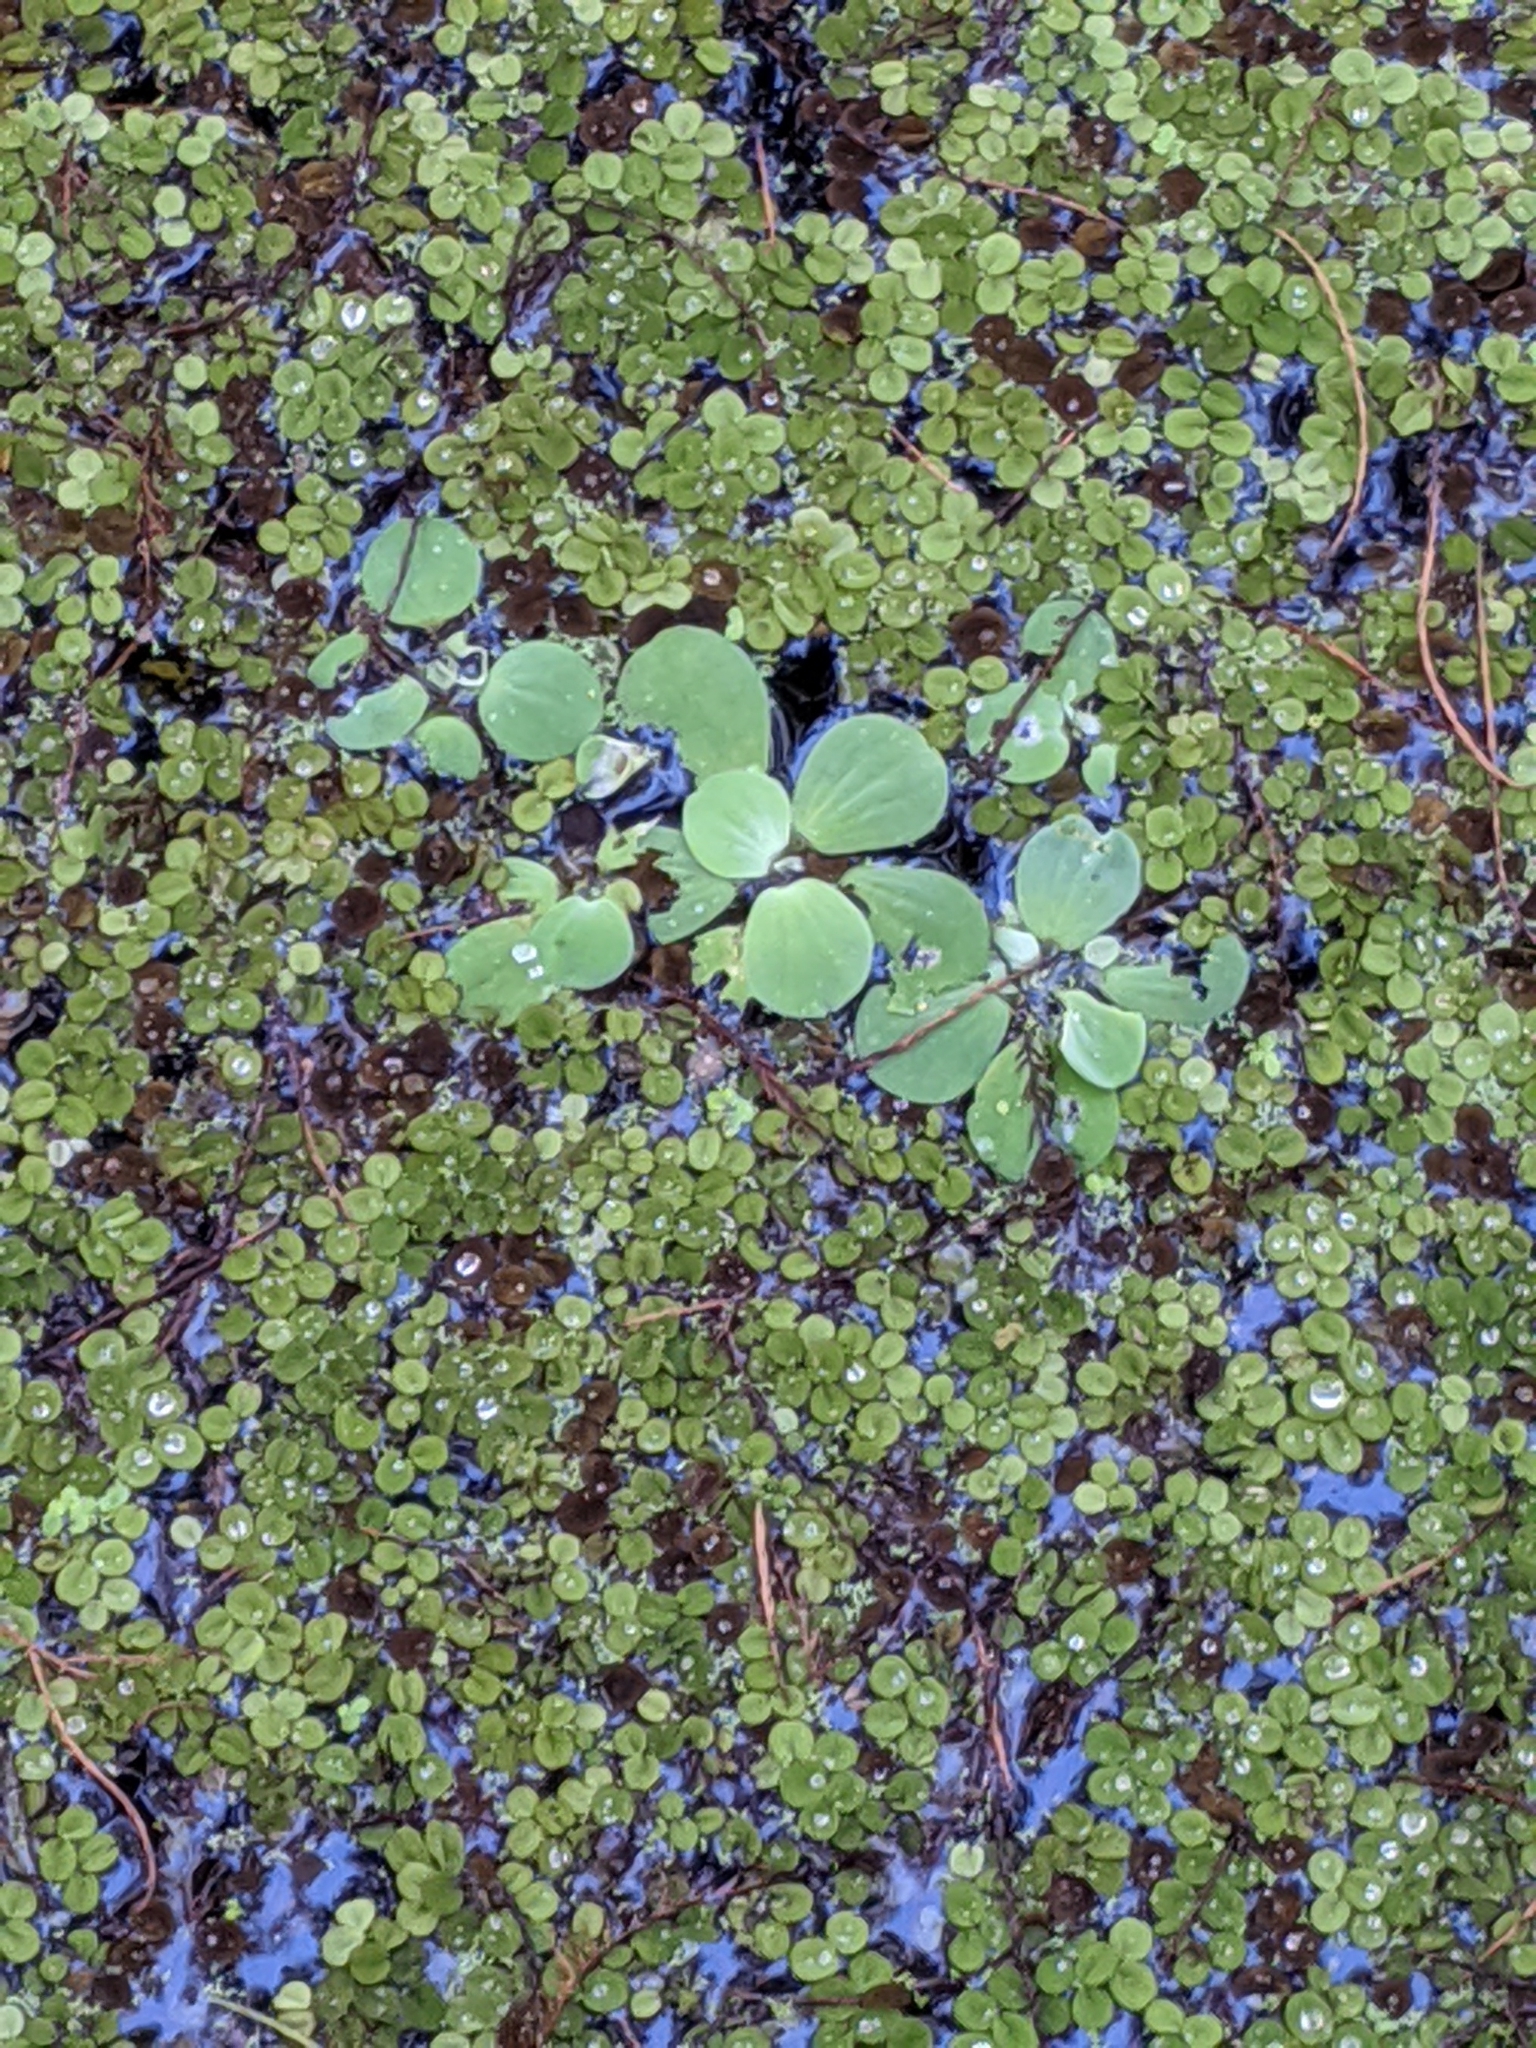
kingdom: Plantae
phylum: Tracheophyta
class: Liliopsida
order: Alismatales
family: Araceae
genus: Pistia
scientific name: Pistia stratiotes
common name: Water lettuce
